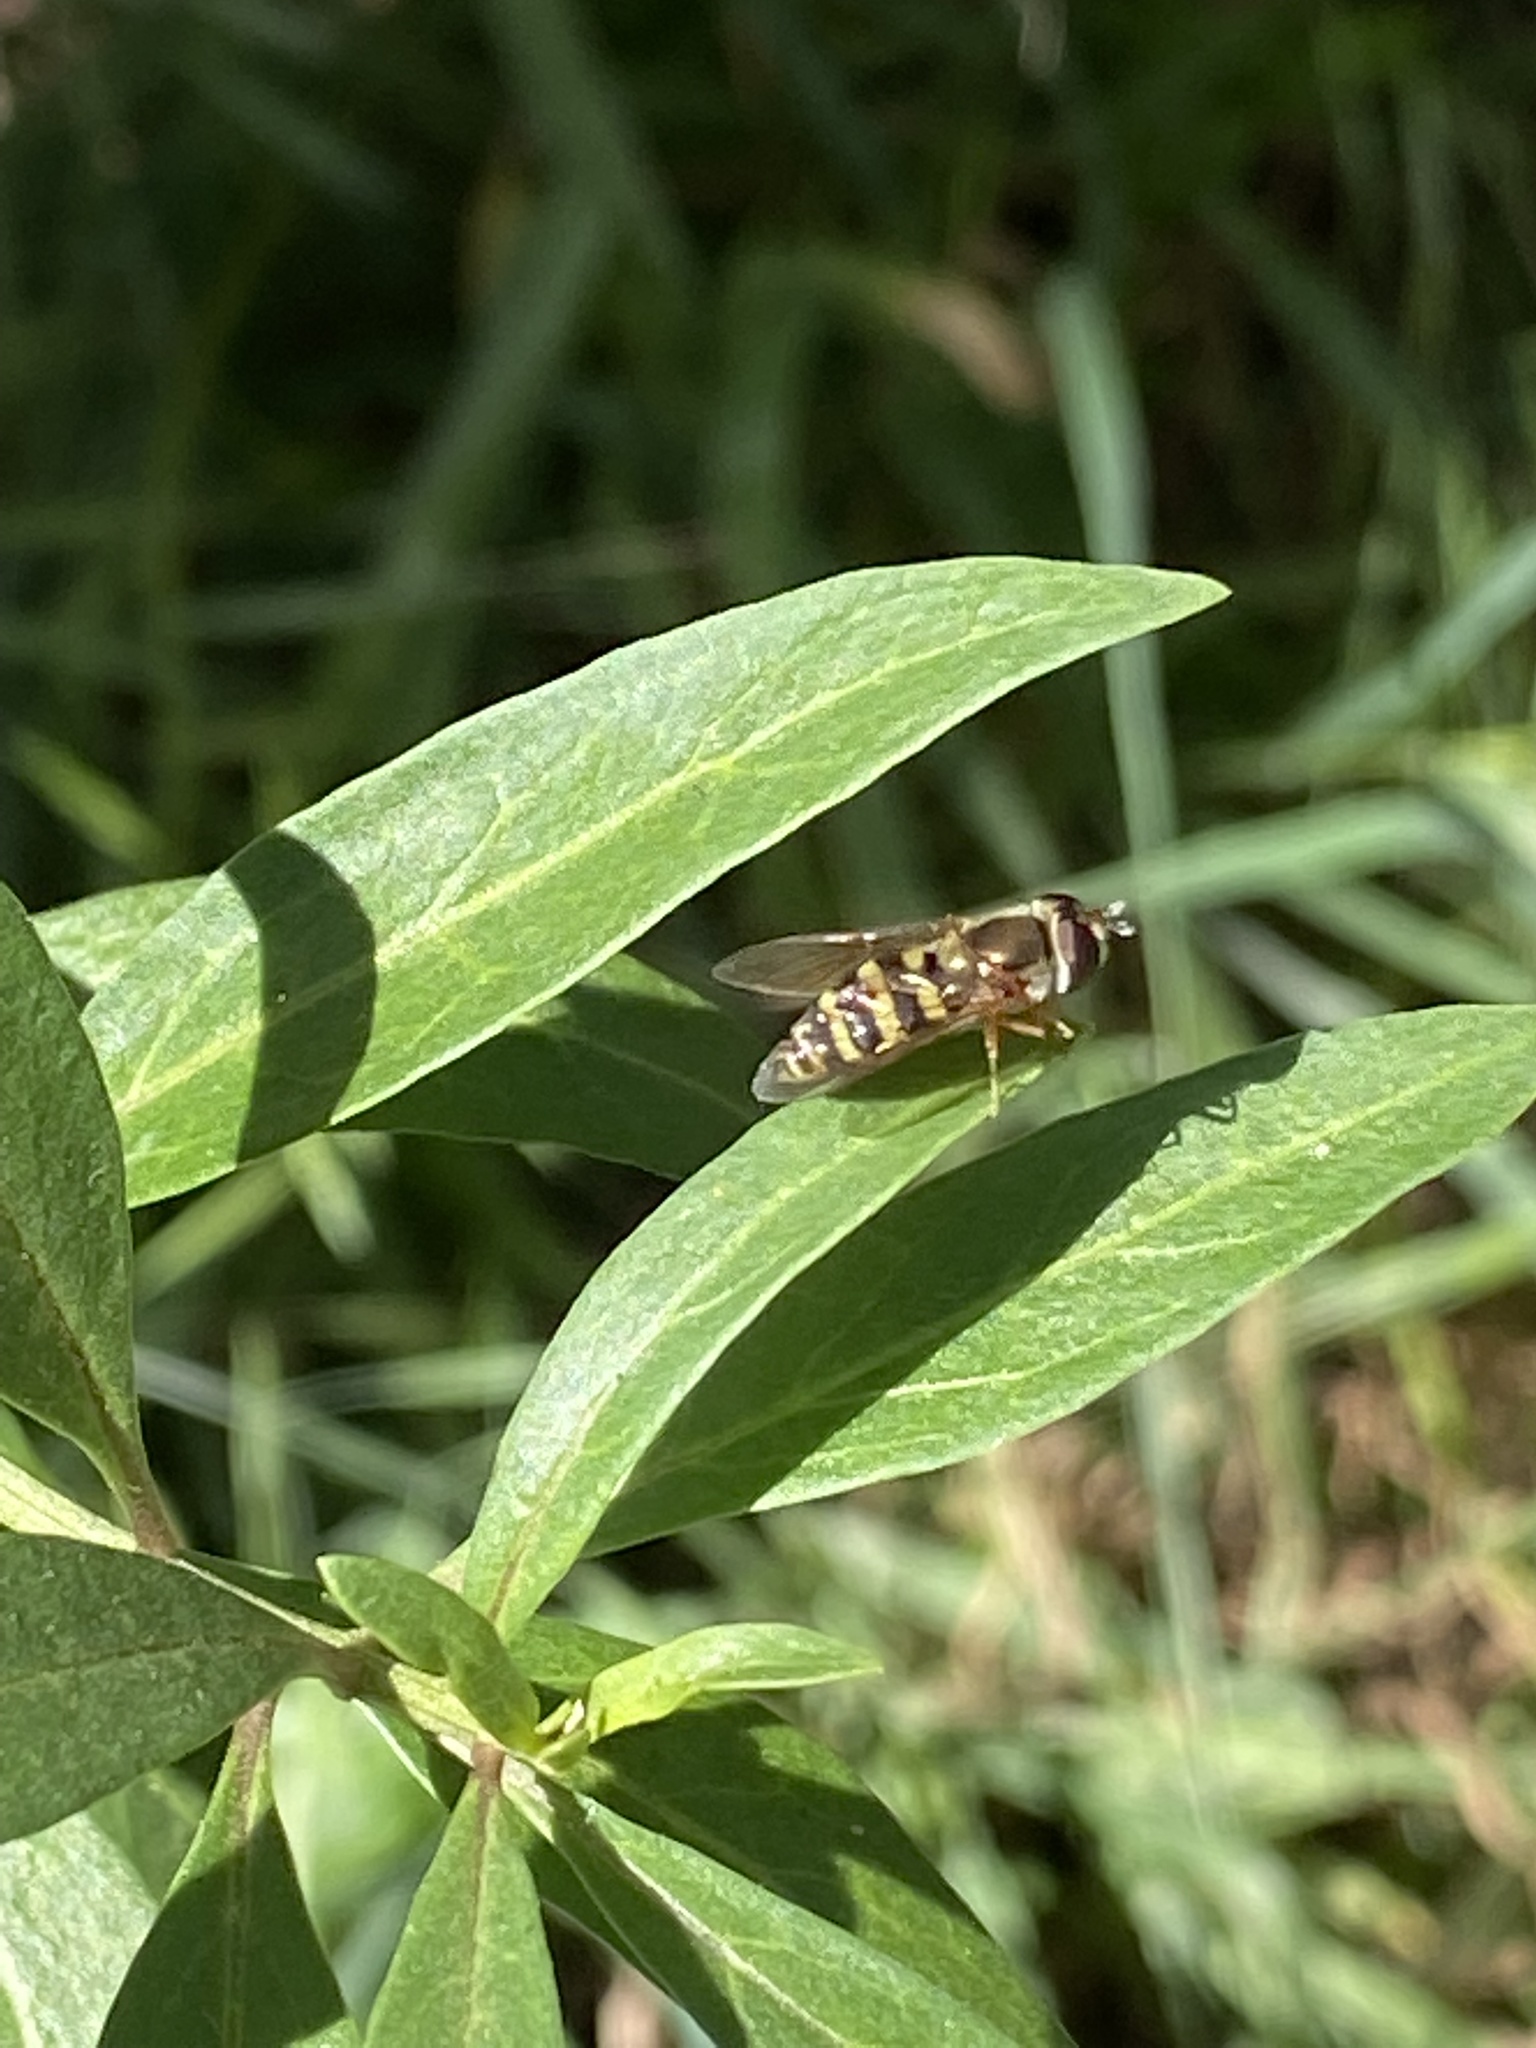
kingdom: Animalia
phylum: Arthropoda
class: Insecta
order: Diptera
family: Syrphidae
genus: Eupeodes
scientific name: Eupeodes fumipennis
